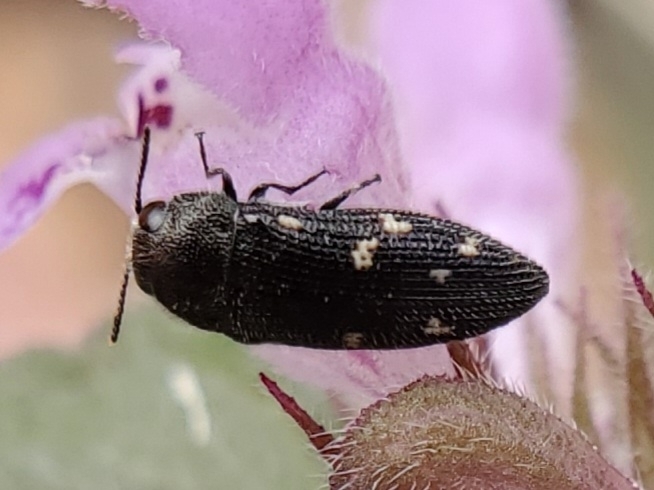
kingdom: Animalia
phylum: Arthropoda
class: Insecta
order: Coleoptera
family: Buprestidae
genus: Acmaeodera
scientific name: Acmaeodera tubulus
